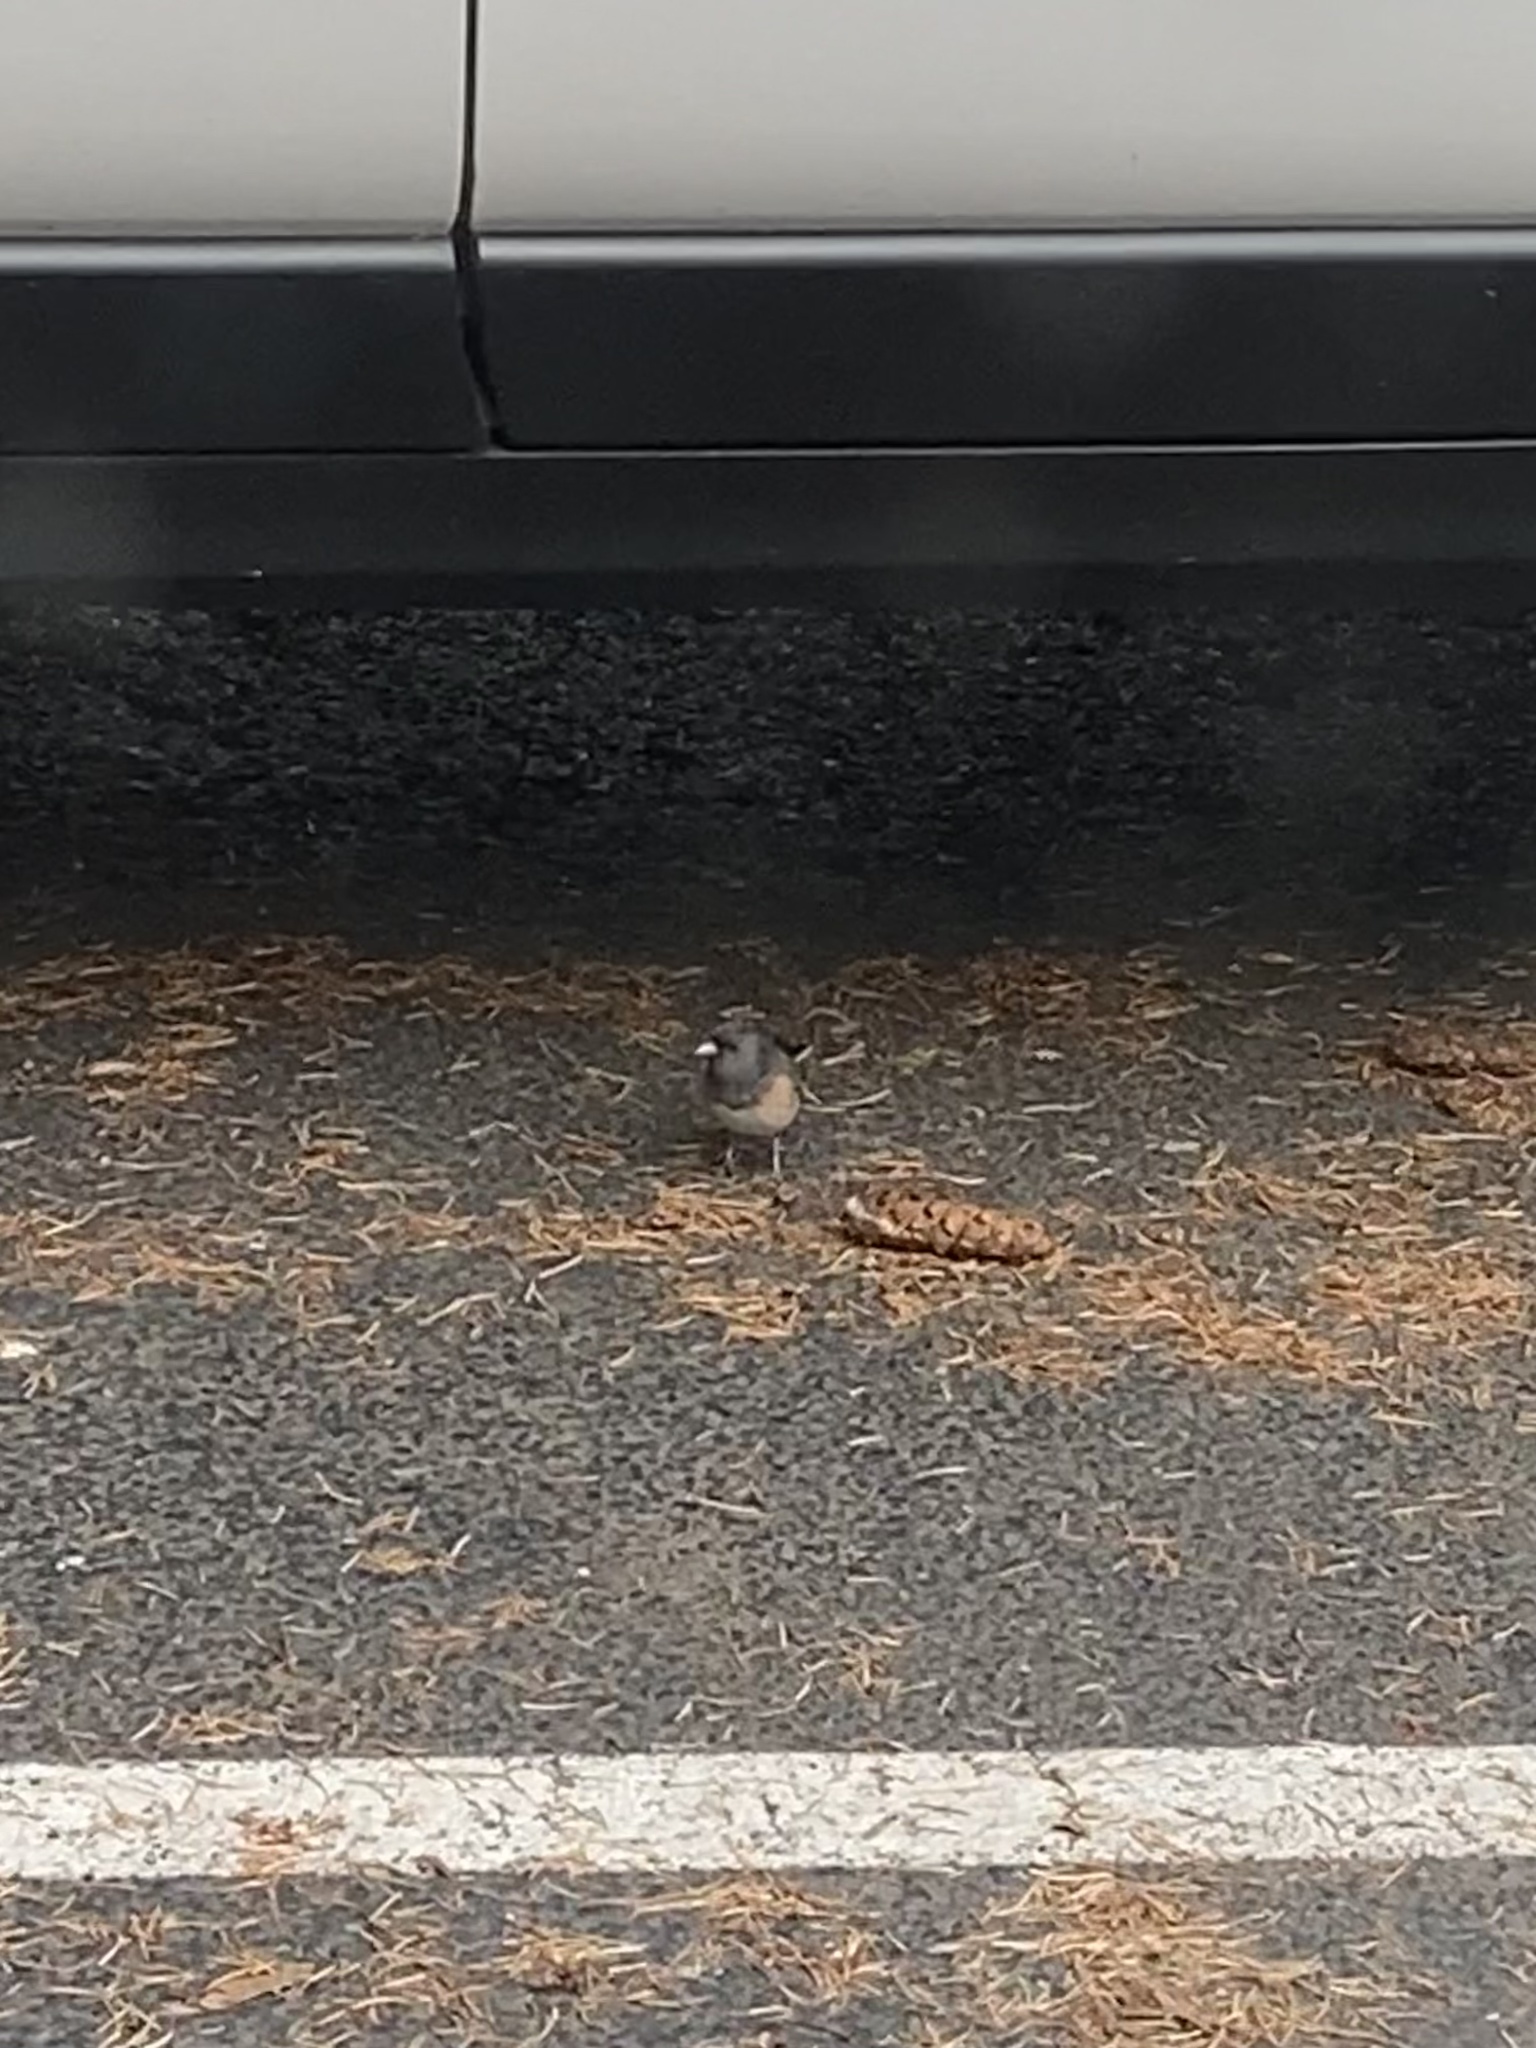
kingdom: Animalia
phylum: Chordata
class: Aves
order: Passeriformes
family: Passerellidae
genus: Junco
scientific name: Junco hyemalis
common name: Dark-eyed junco
